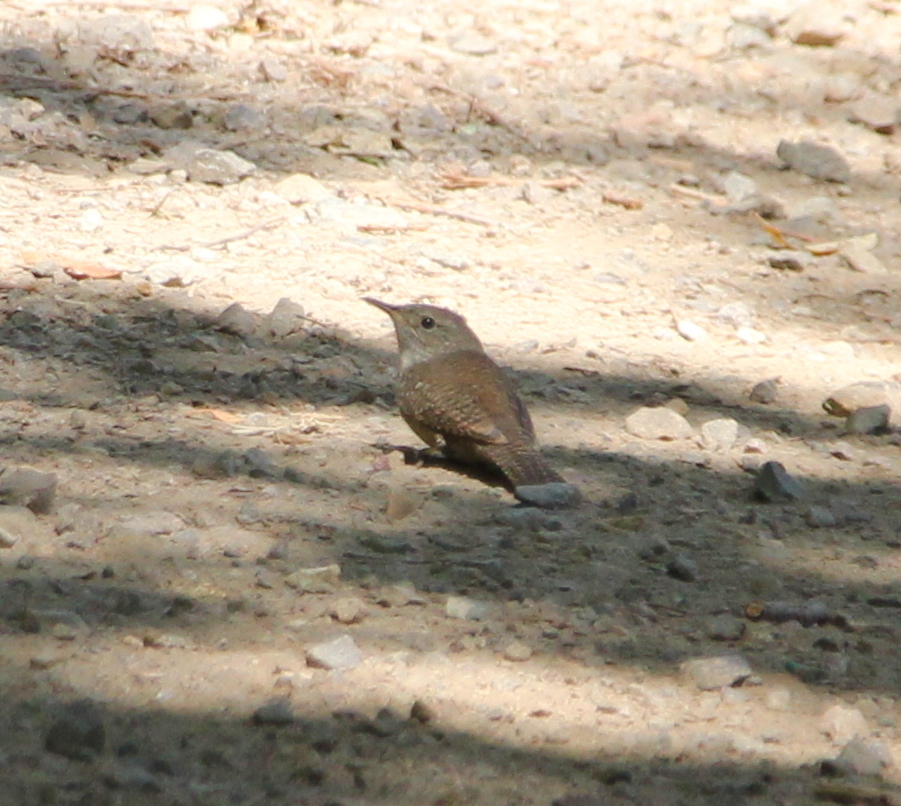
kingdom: Animalia
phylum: Chordata
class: Aves
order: Passeriformes
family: Troglodytidae
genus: Troglodytes
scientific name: Troglodytes aedon
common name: House wren
